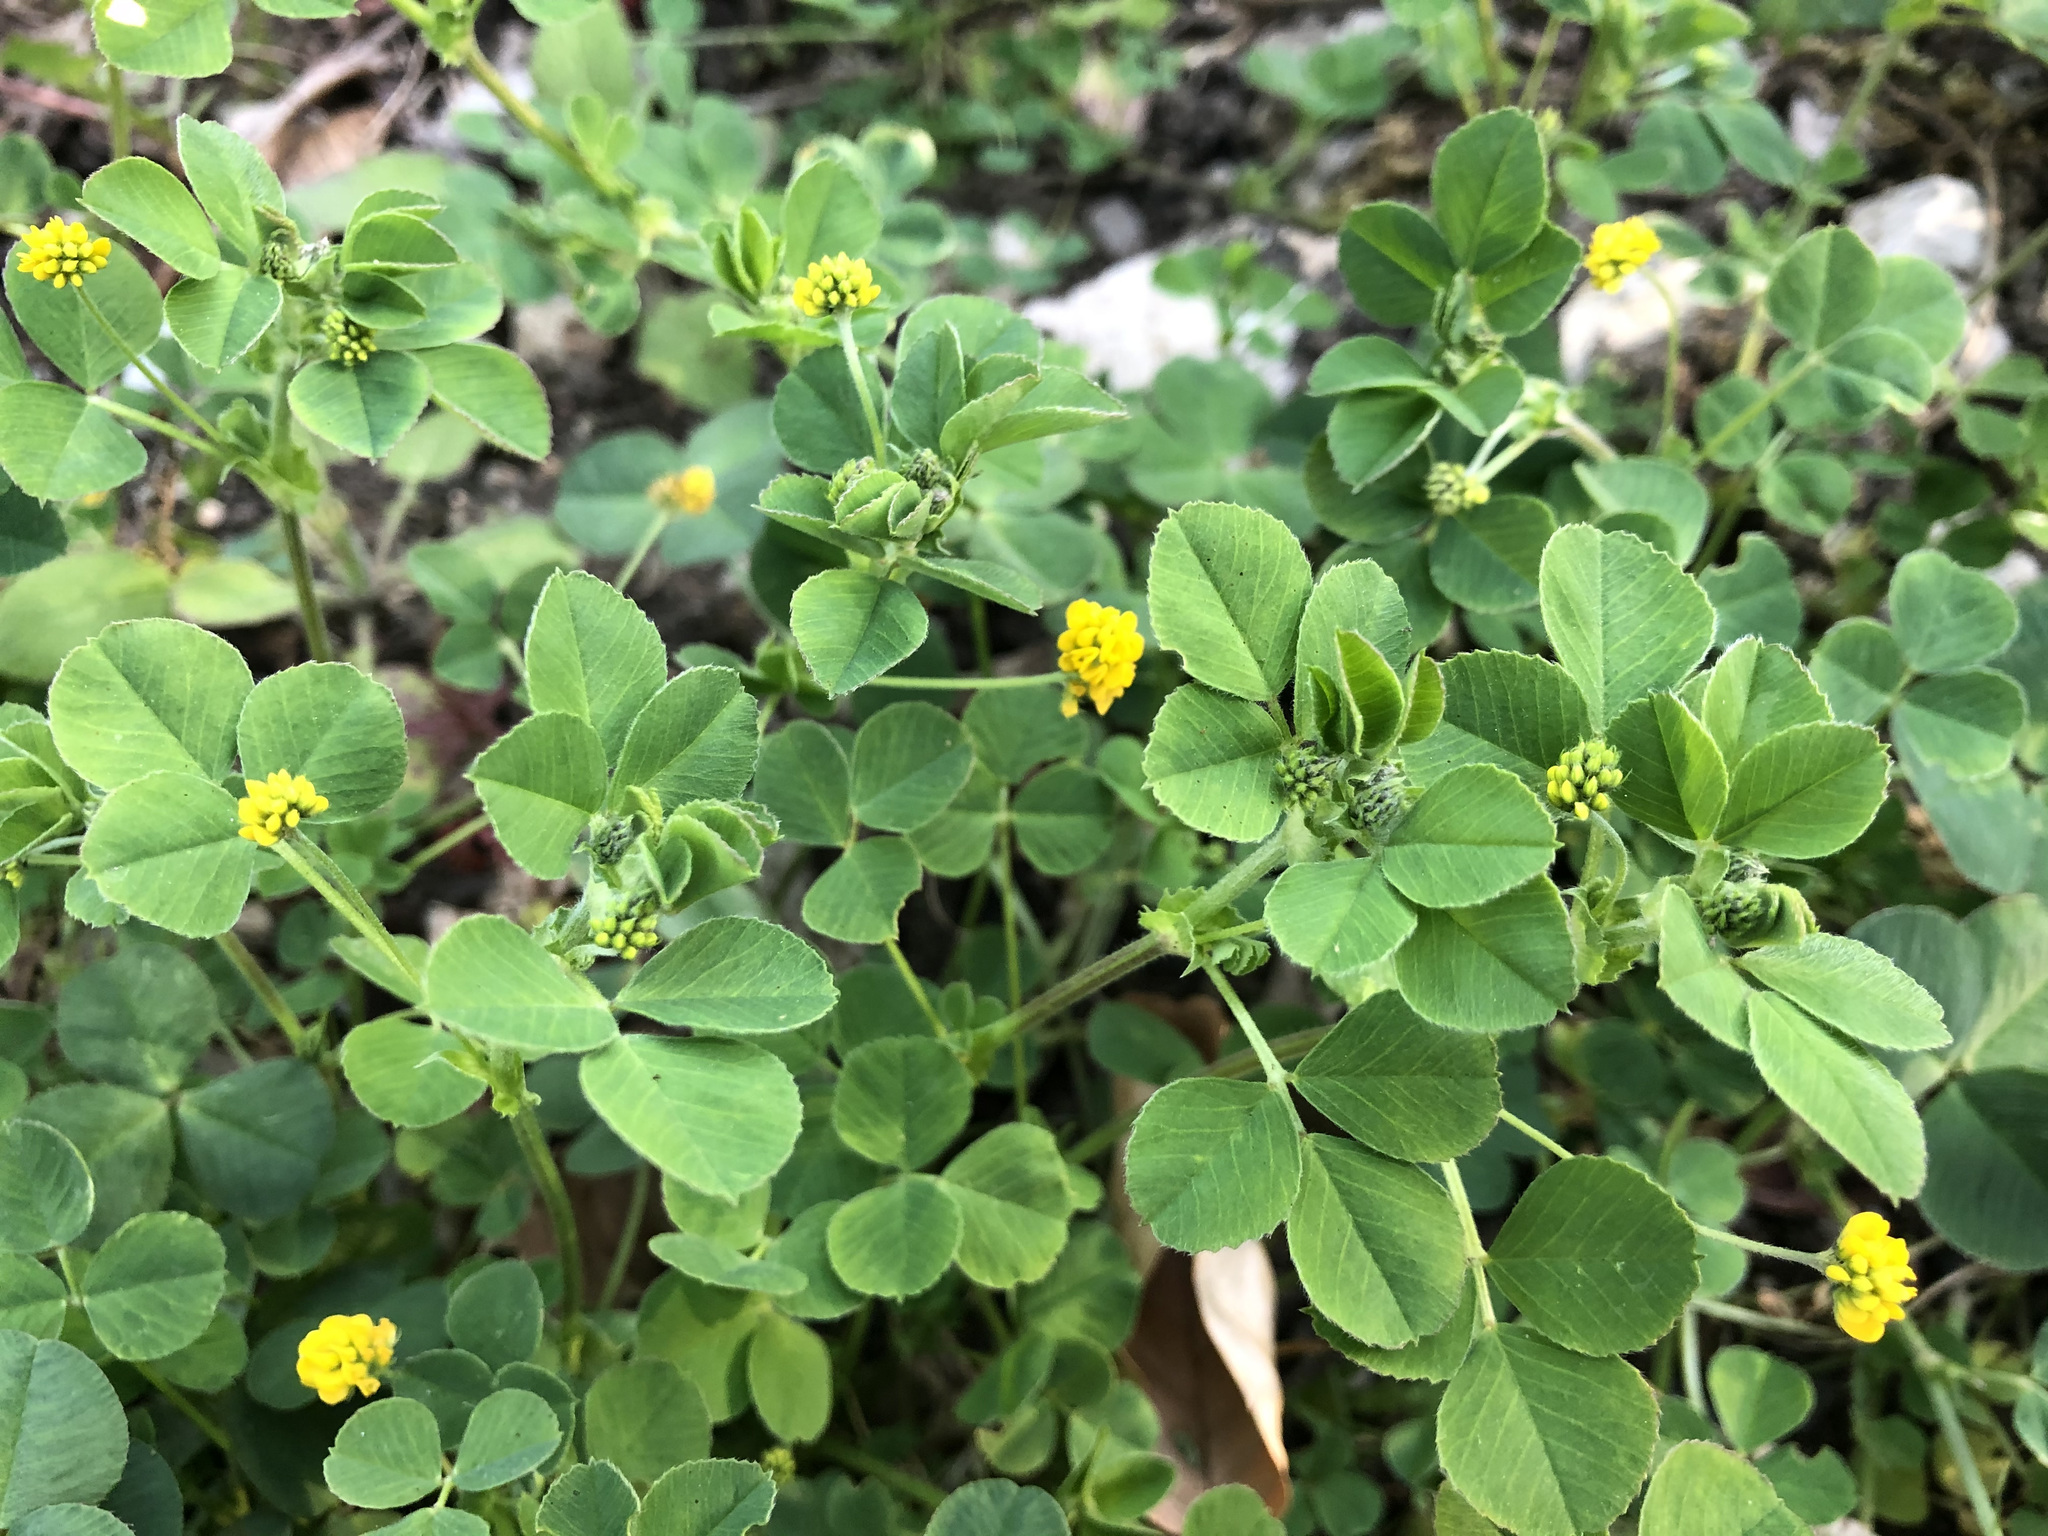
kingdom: Plantae
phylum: Tracheophyta
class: Magnoliopsida
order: Fabales
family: Fabaceae
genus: Medicago
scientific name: Medicago lupulina
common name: Black medick
